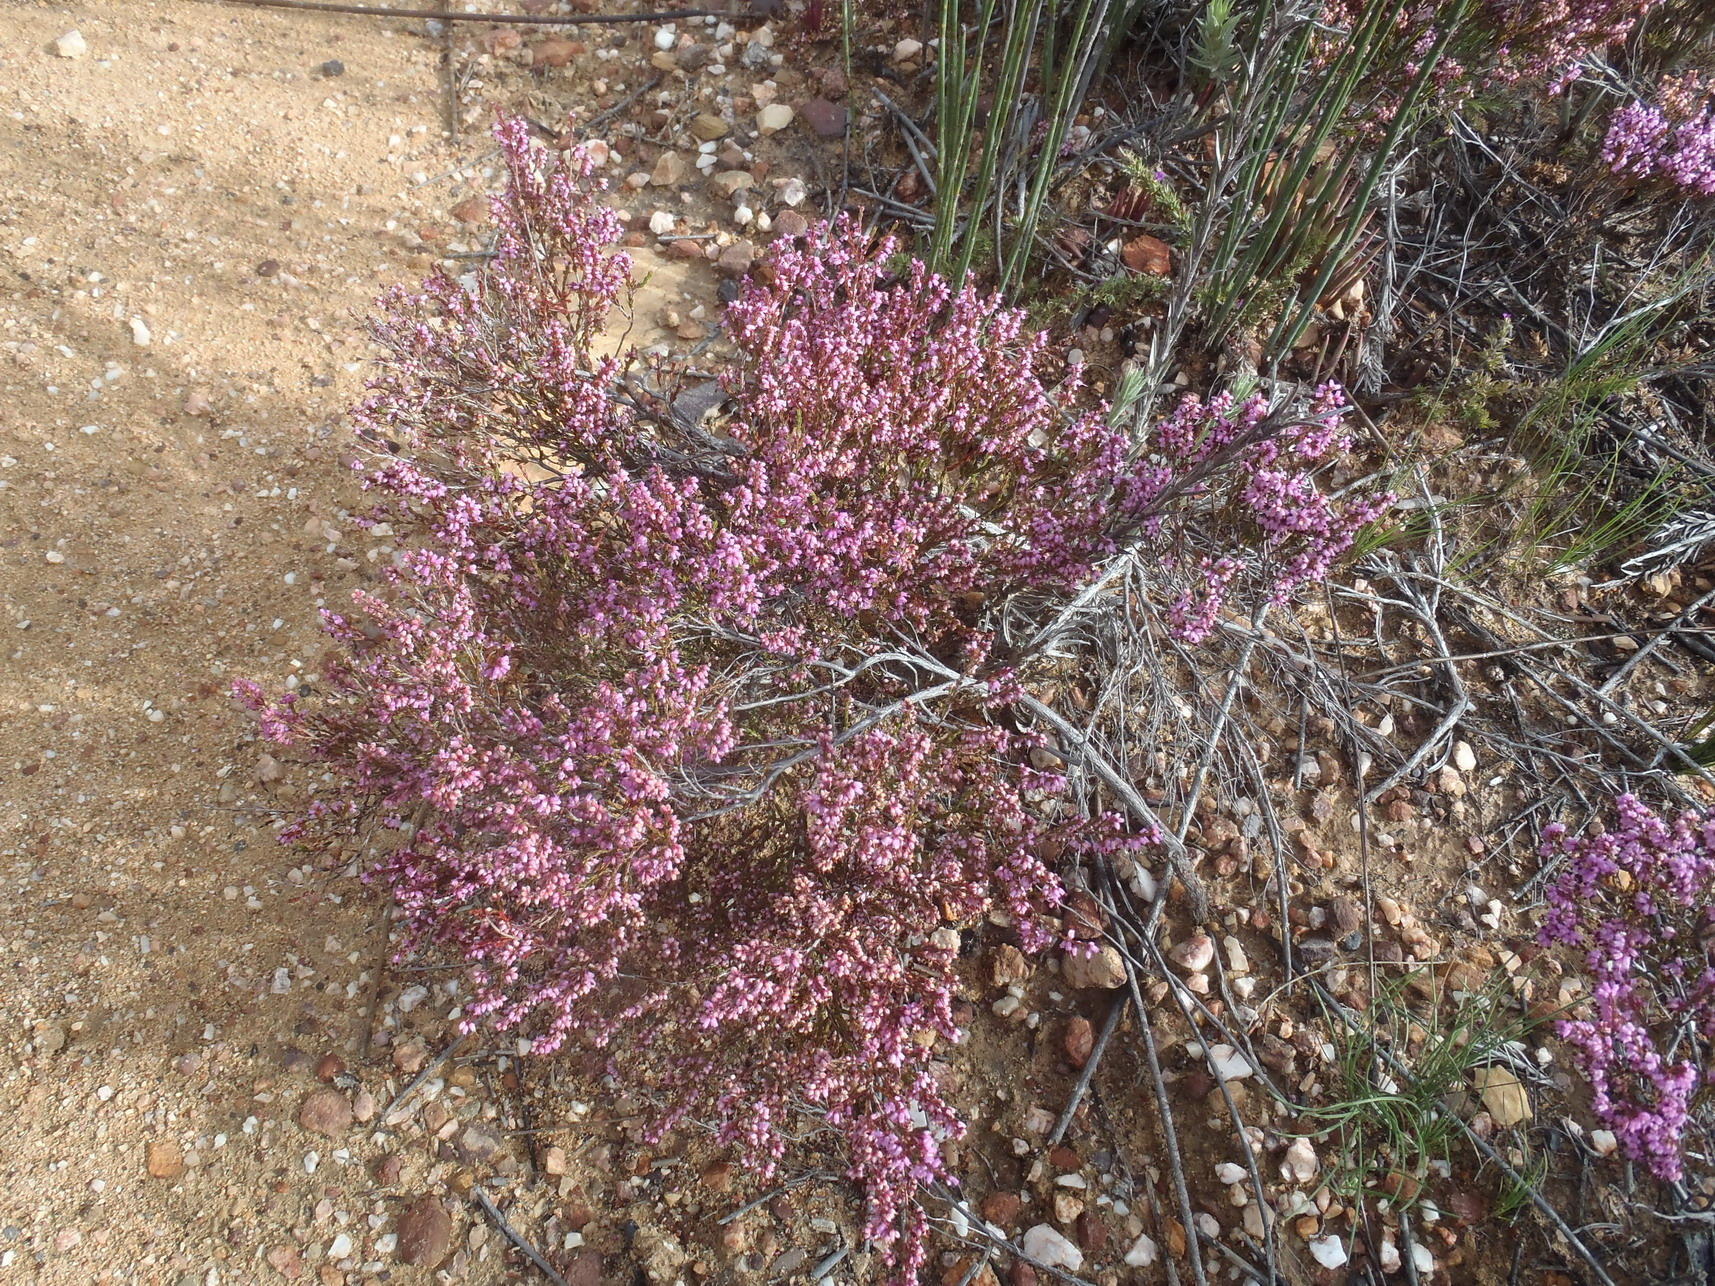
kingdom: Plantae
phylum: Tracheophyta
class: Magnoliopsida
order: Ericales
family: Ericaceae
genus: Erica
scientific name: Erica rosacea
